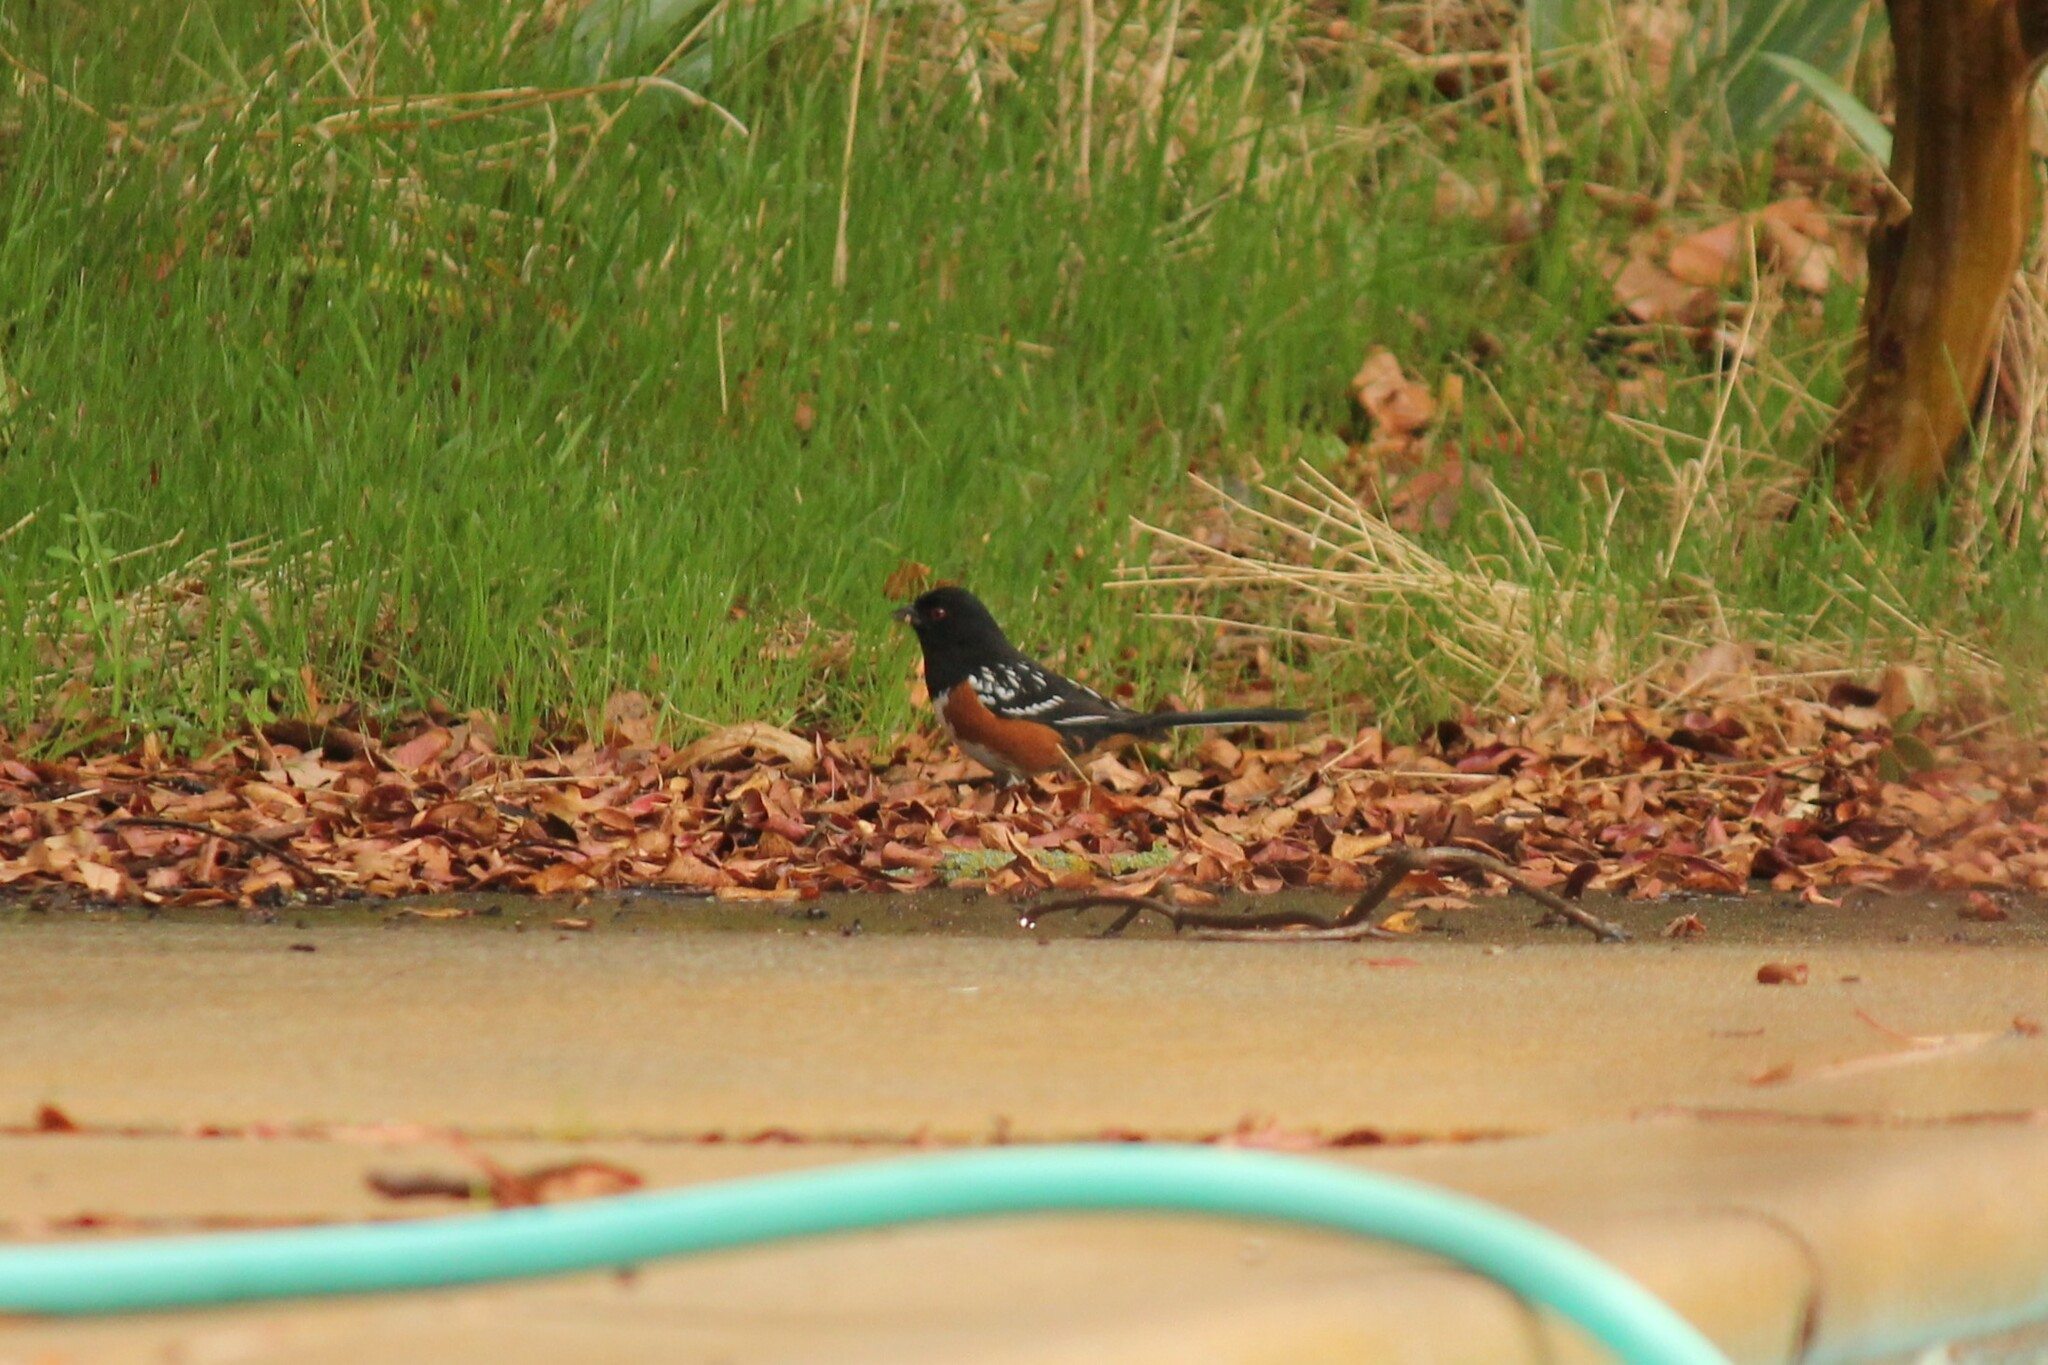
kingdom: Animalia
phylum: Chordata
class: Aves
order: Passeriformes
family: Passerellidae
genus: Pipilo
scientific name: Pipilo maculatus
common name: Spotted towhee
